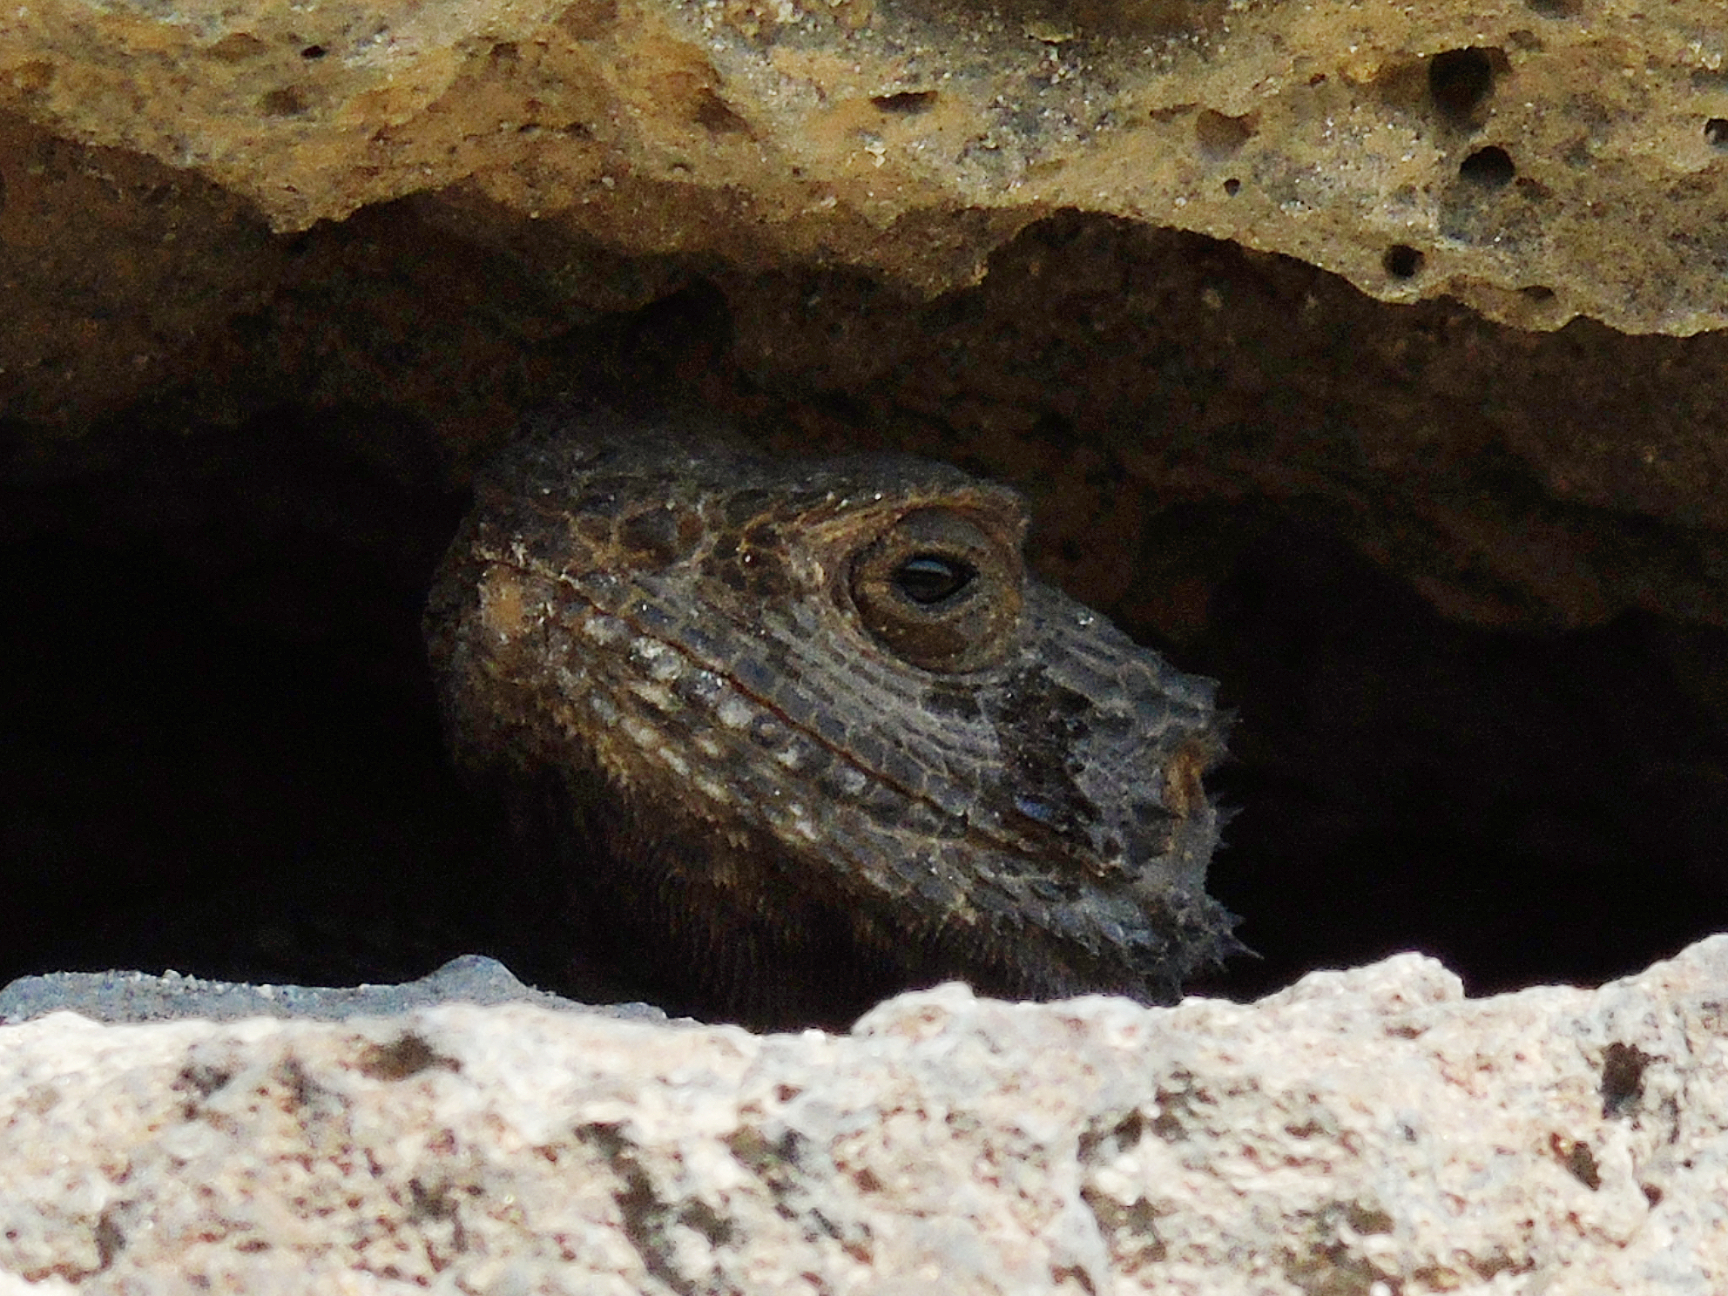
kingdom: Animalia
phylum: Chordata
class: Squamata
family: Agamidae
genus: Stellagama
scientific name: Stellagama stellio
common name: Starred agama
